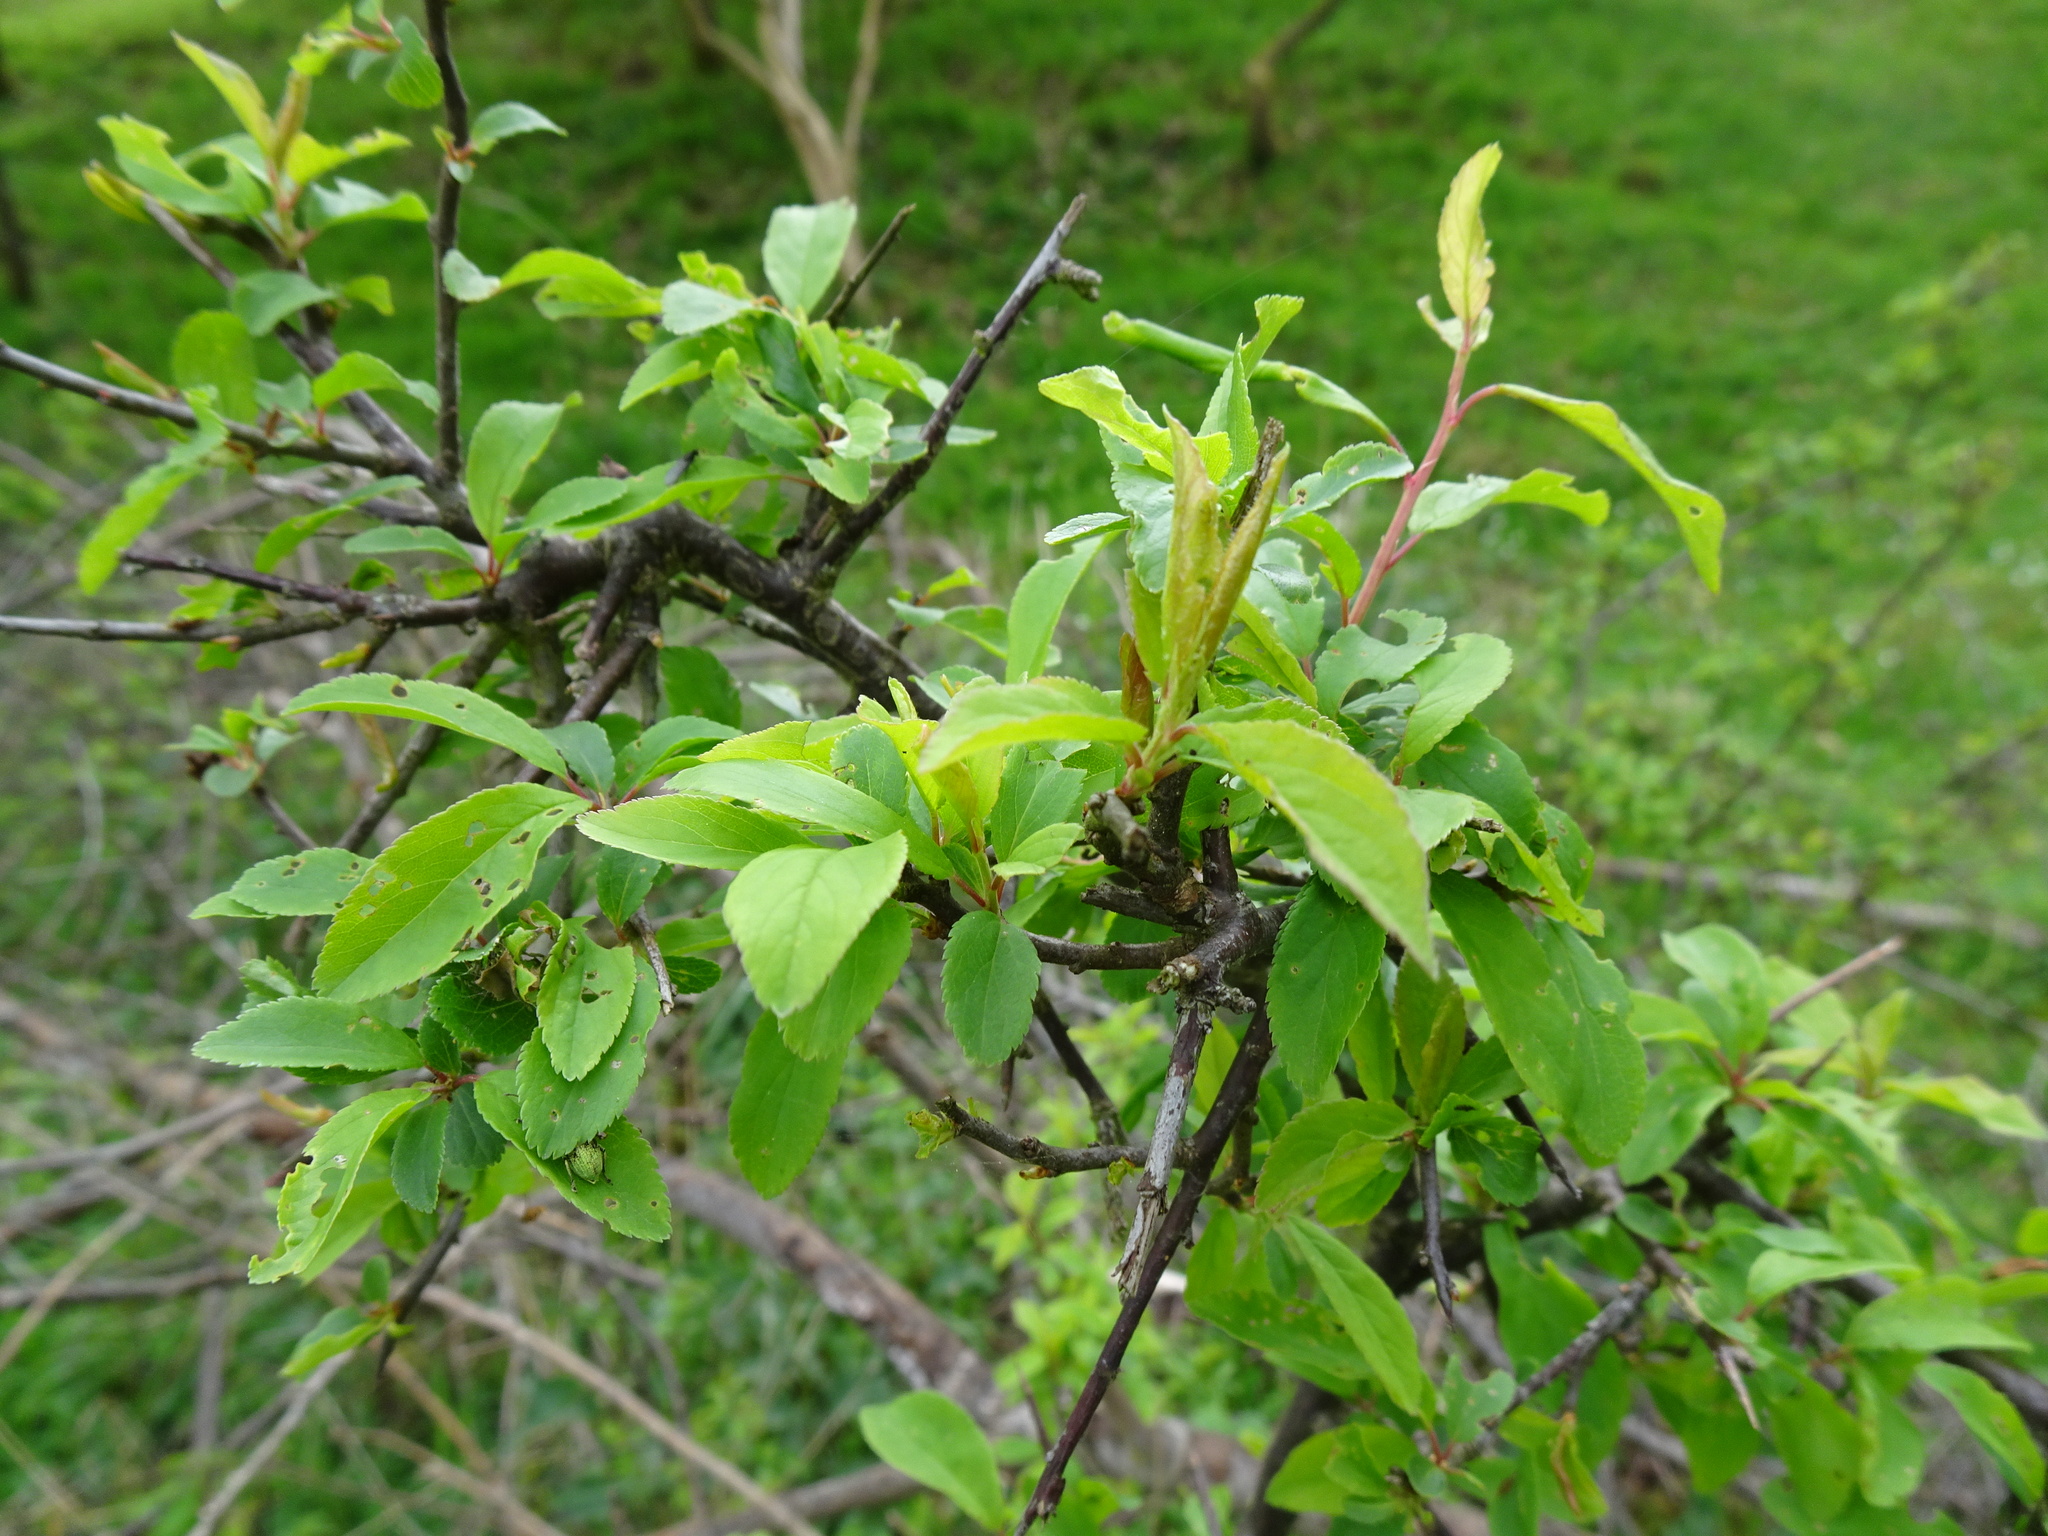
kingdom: Plantae
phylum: Tracheophyta
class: Magnoliopsida
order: Rosales
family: Rosaceae
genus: Prunus
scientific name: Prunus spinosa
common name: Blackthorn
